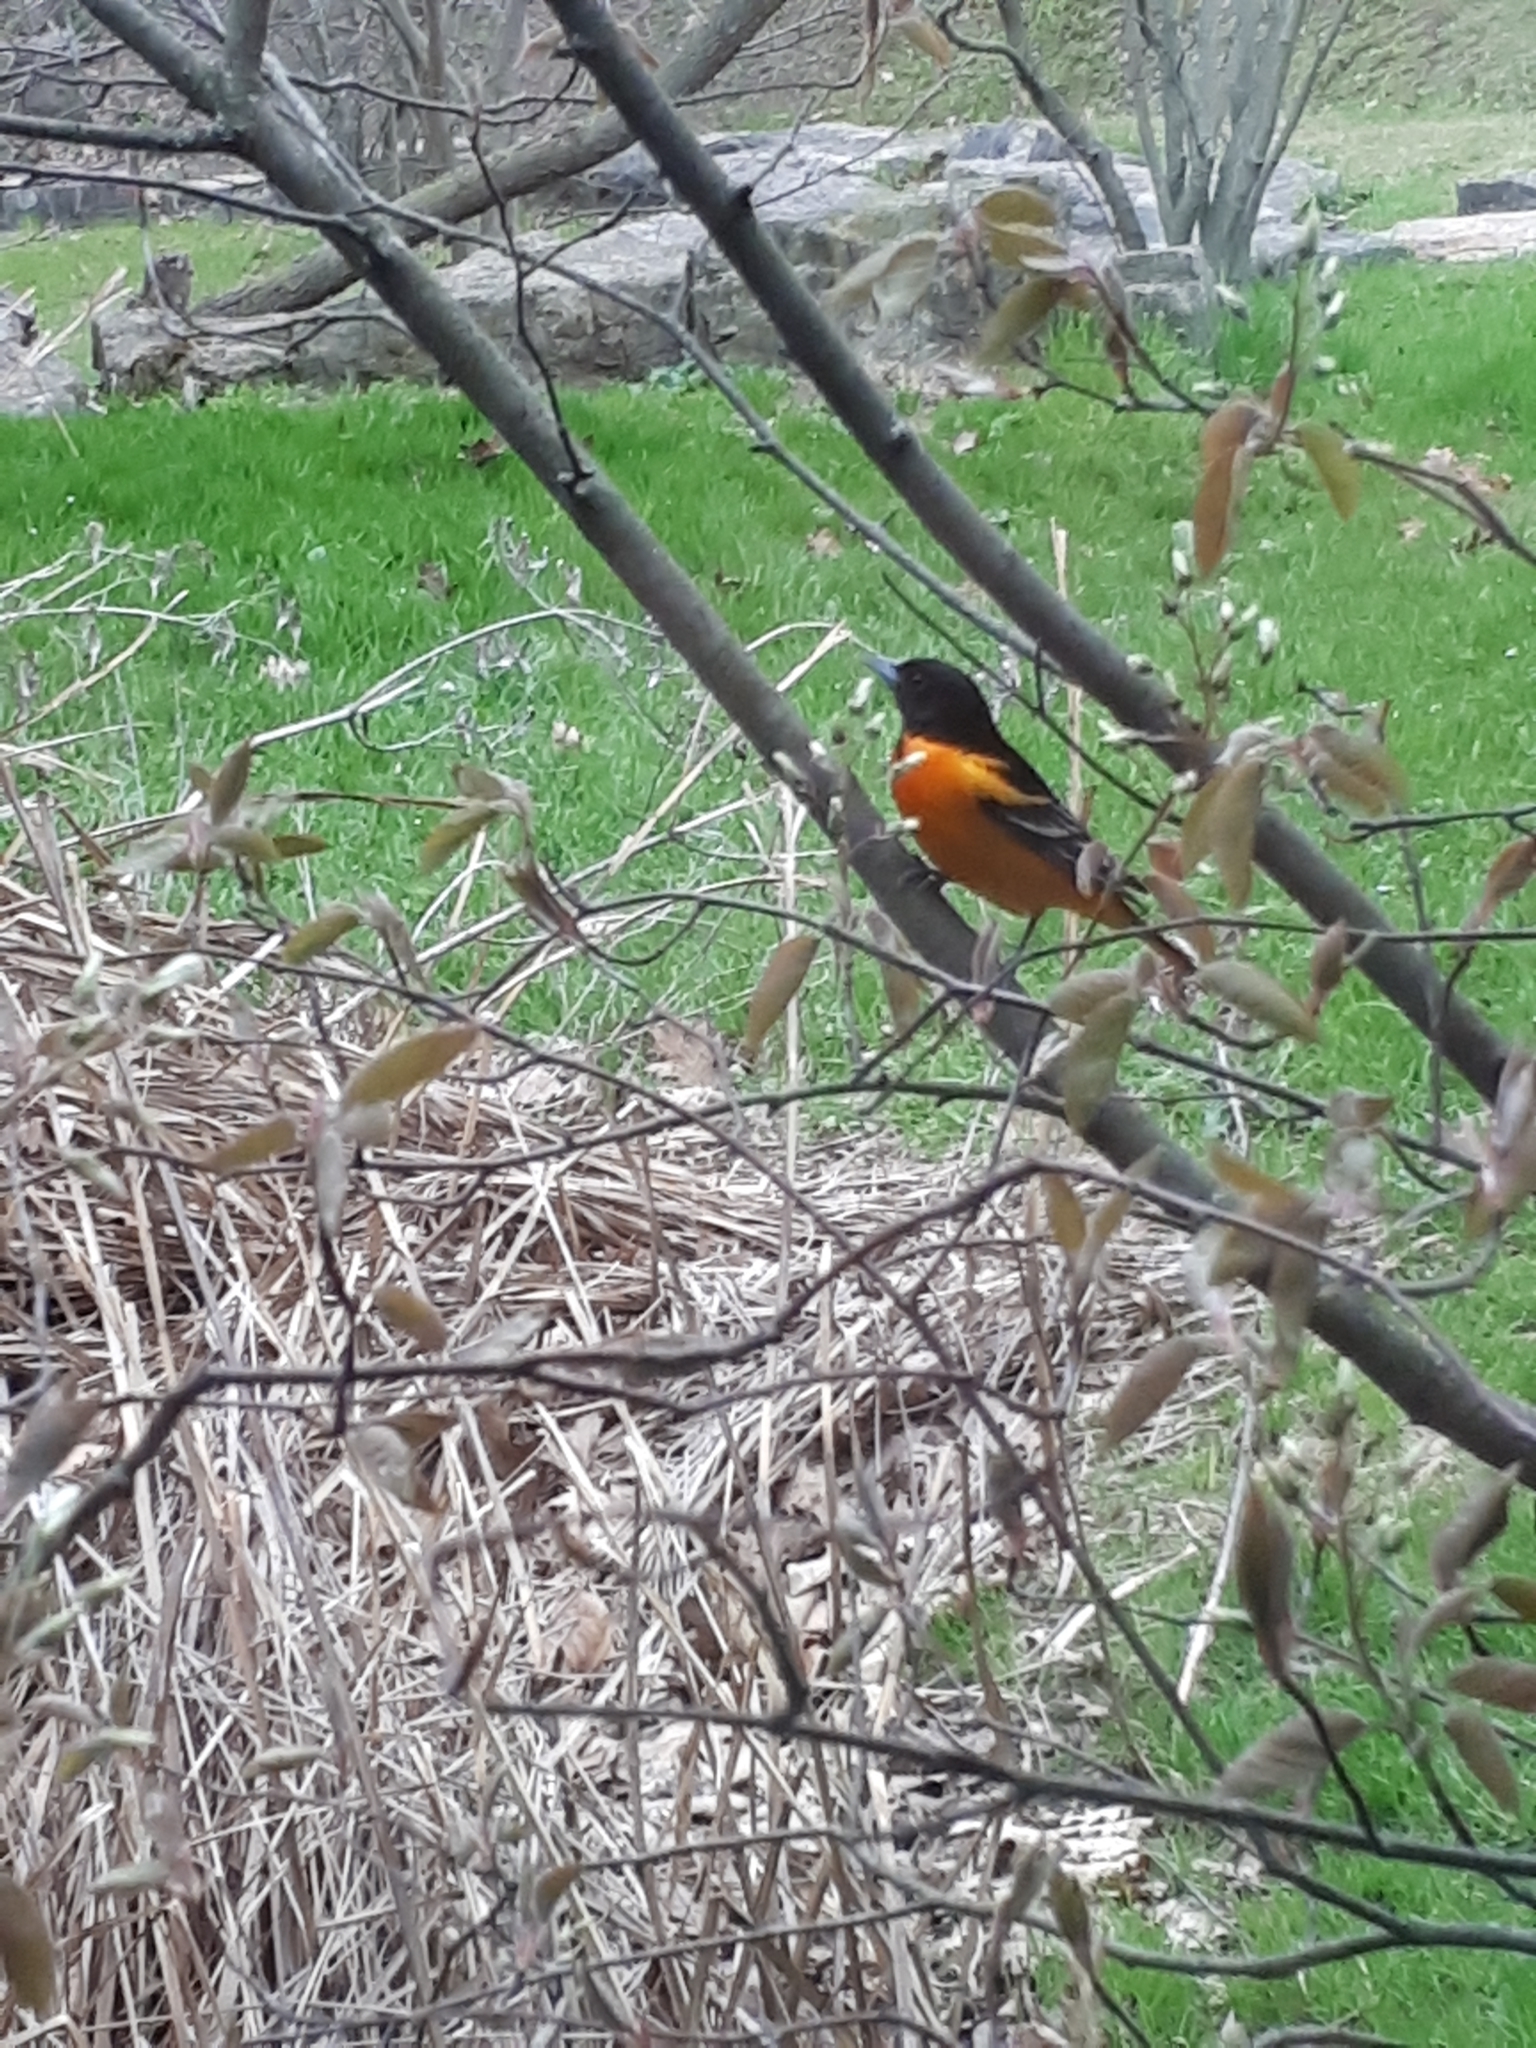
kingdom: Animalia
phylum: Chordata
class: Aves
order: Passeriformes
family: Icteridae
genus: Icterus
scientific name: Icterus galbula
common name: Baltimore oriole
